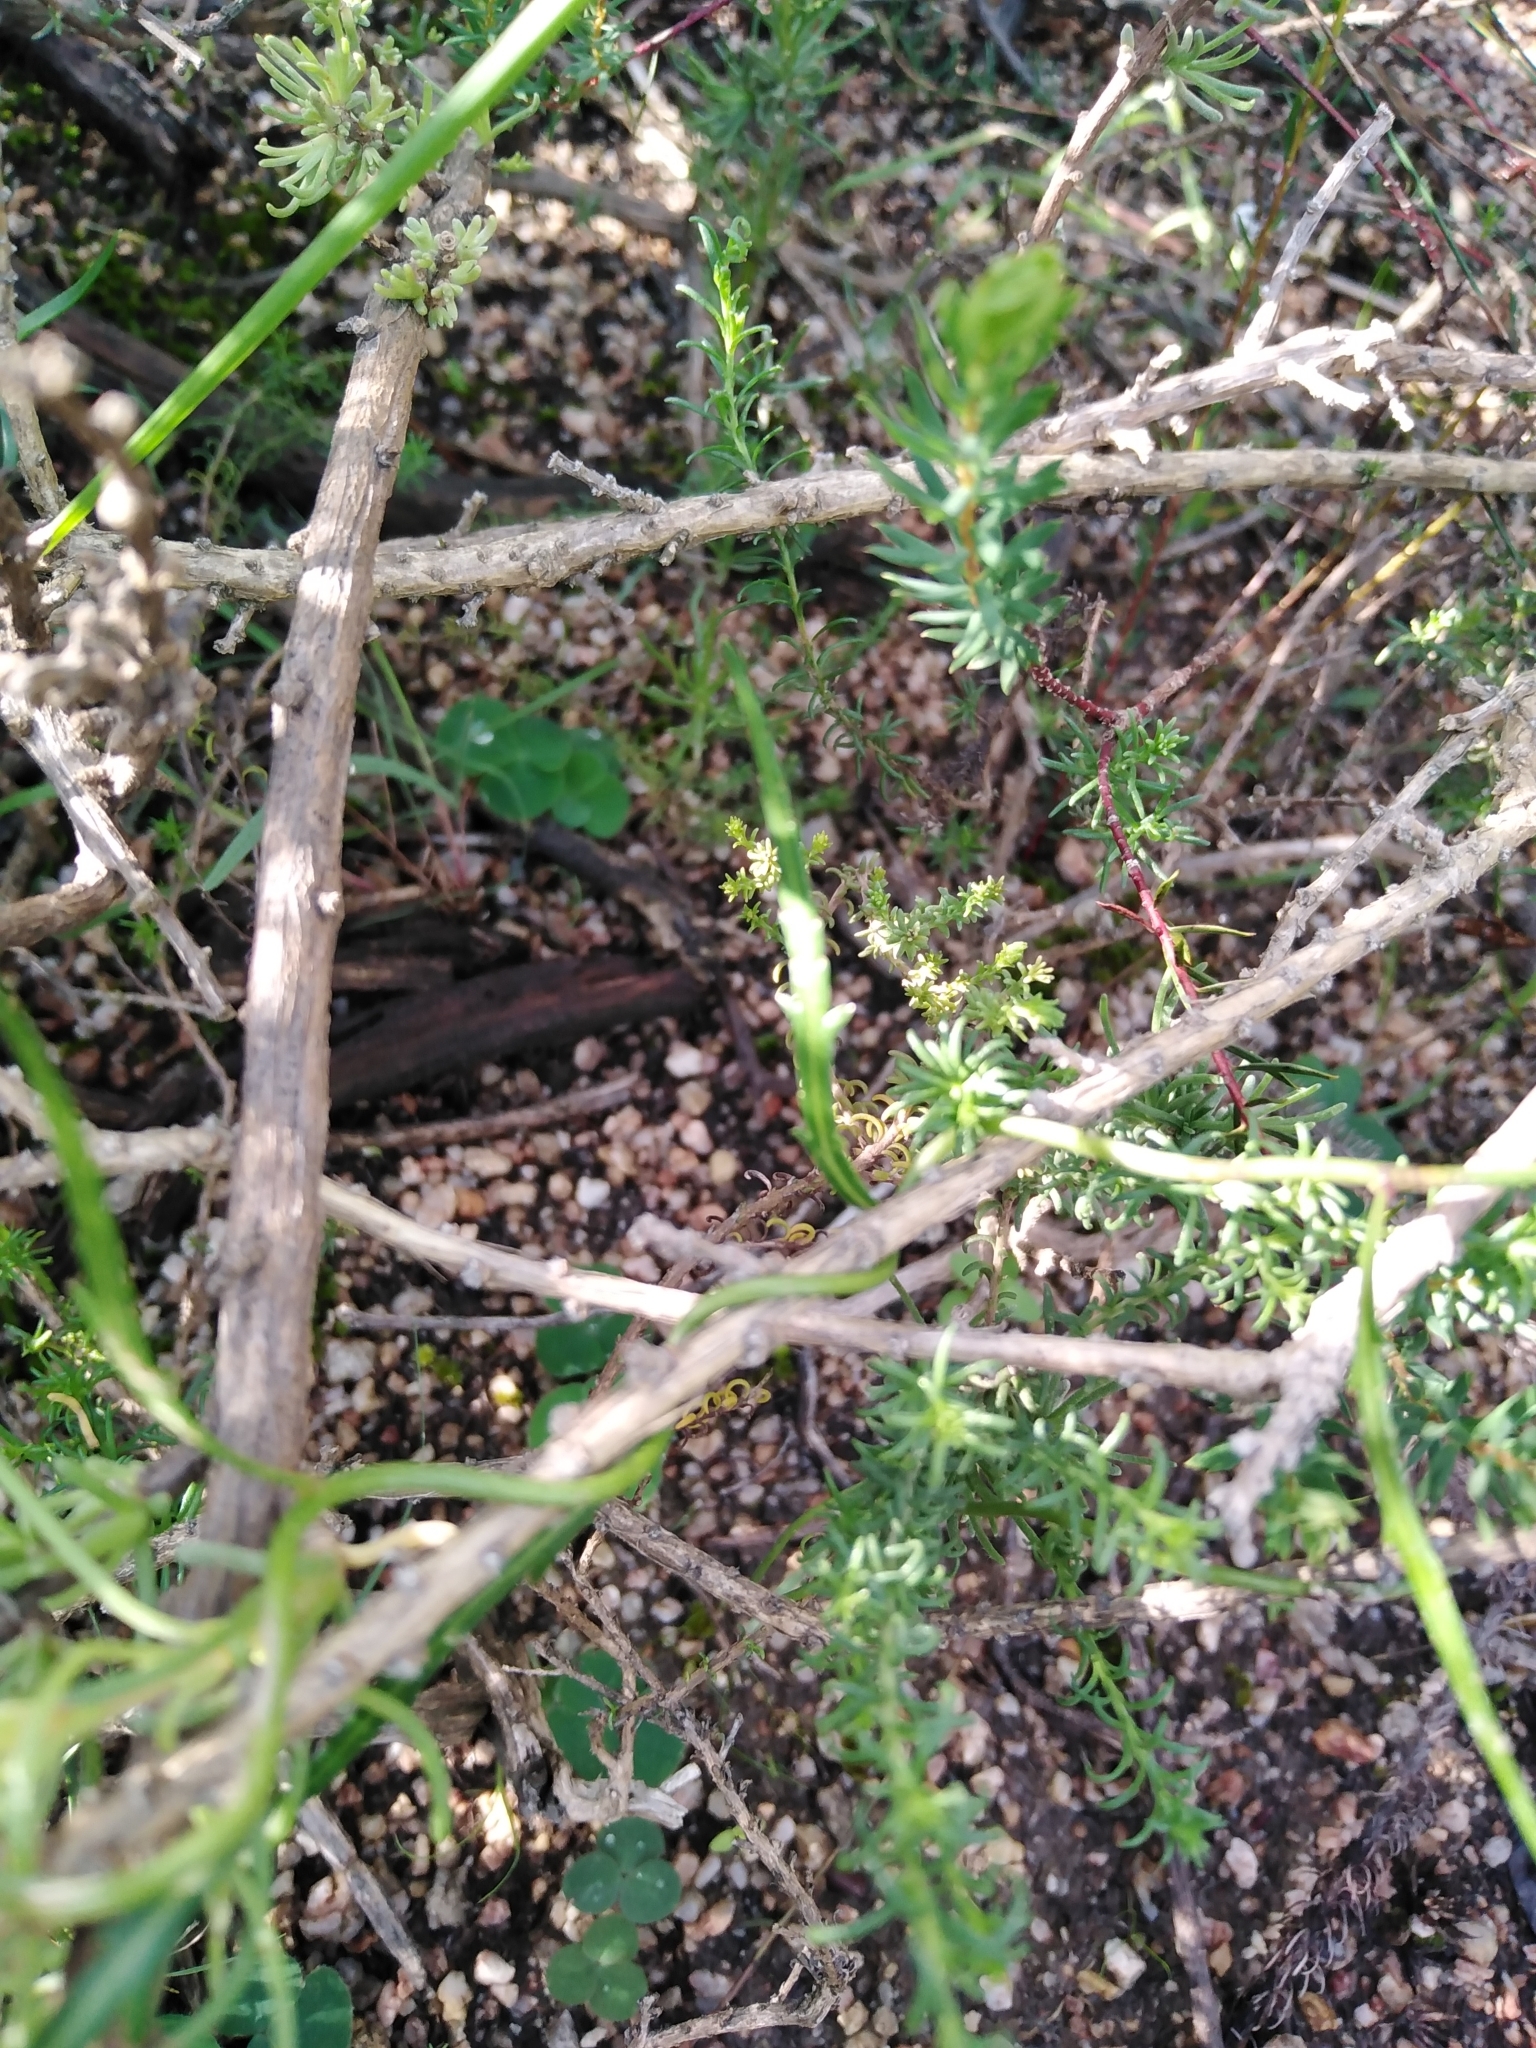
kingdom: Plantae
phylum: Tracheophyta
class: Magnoliopsida
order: Asterales
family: Campanulaceae
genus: Cyphia
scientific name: Cyphia volubilis
